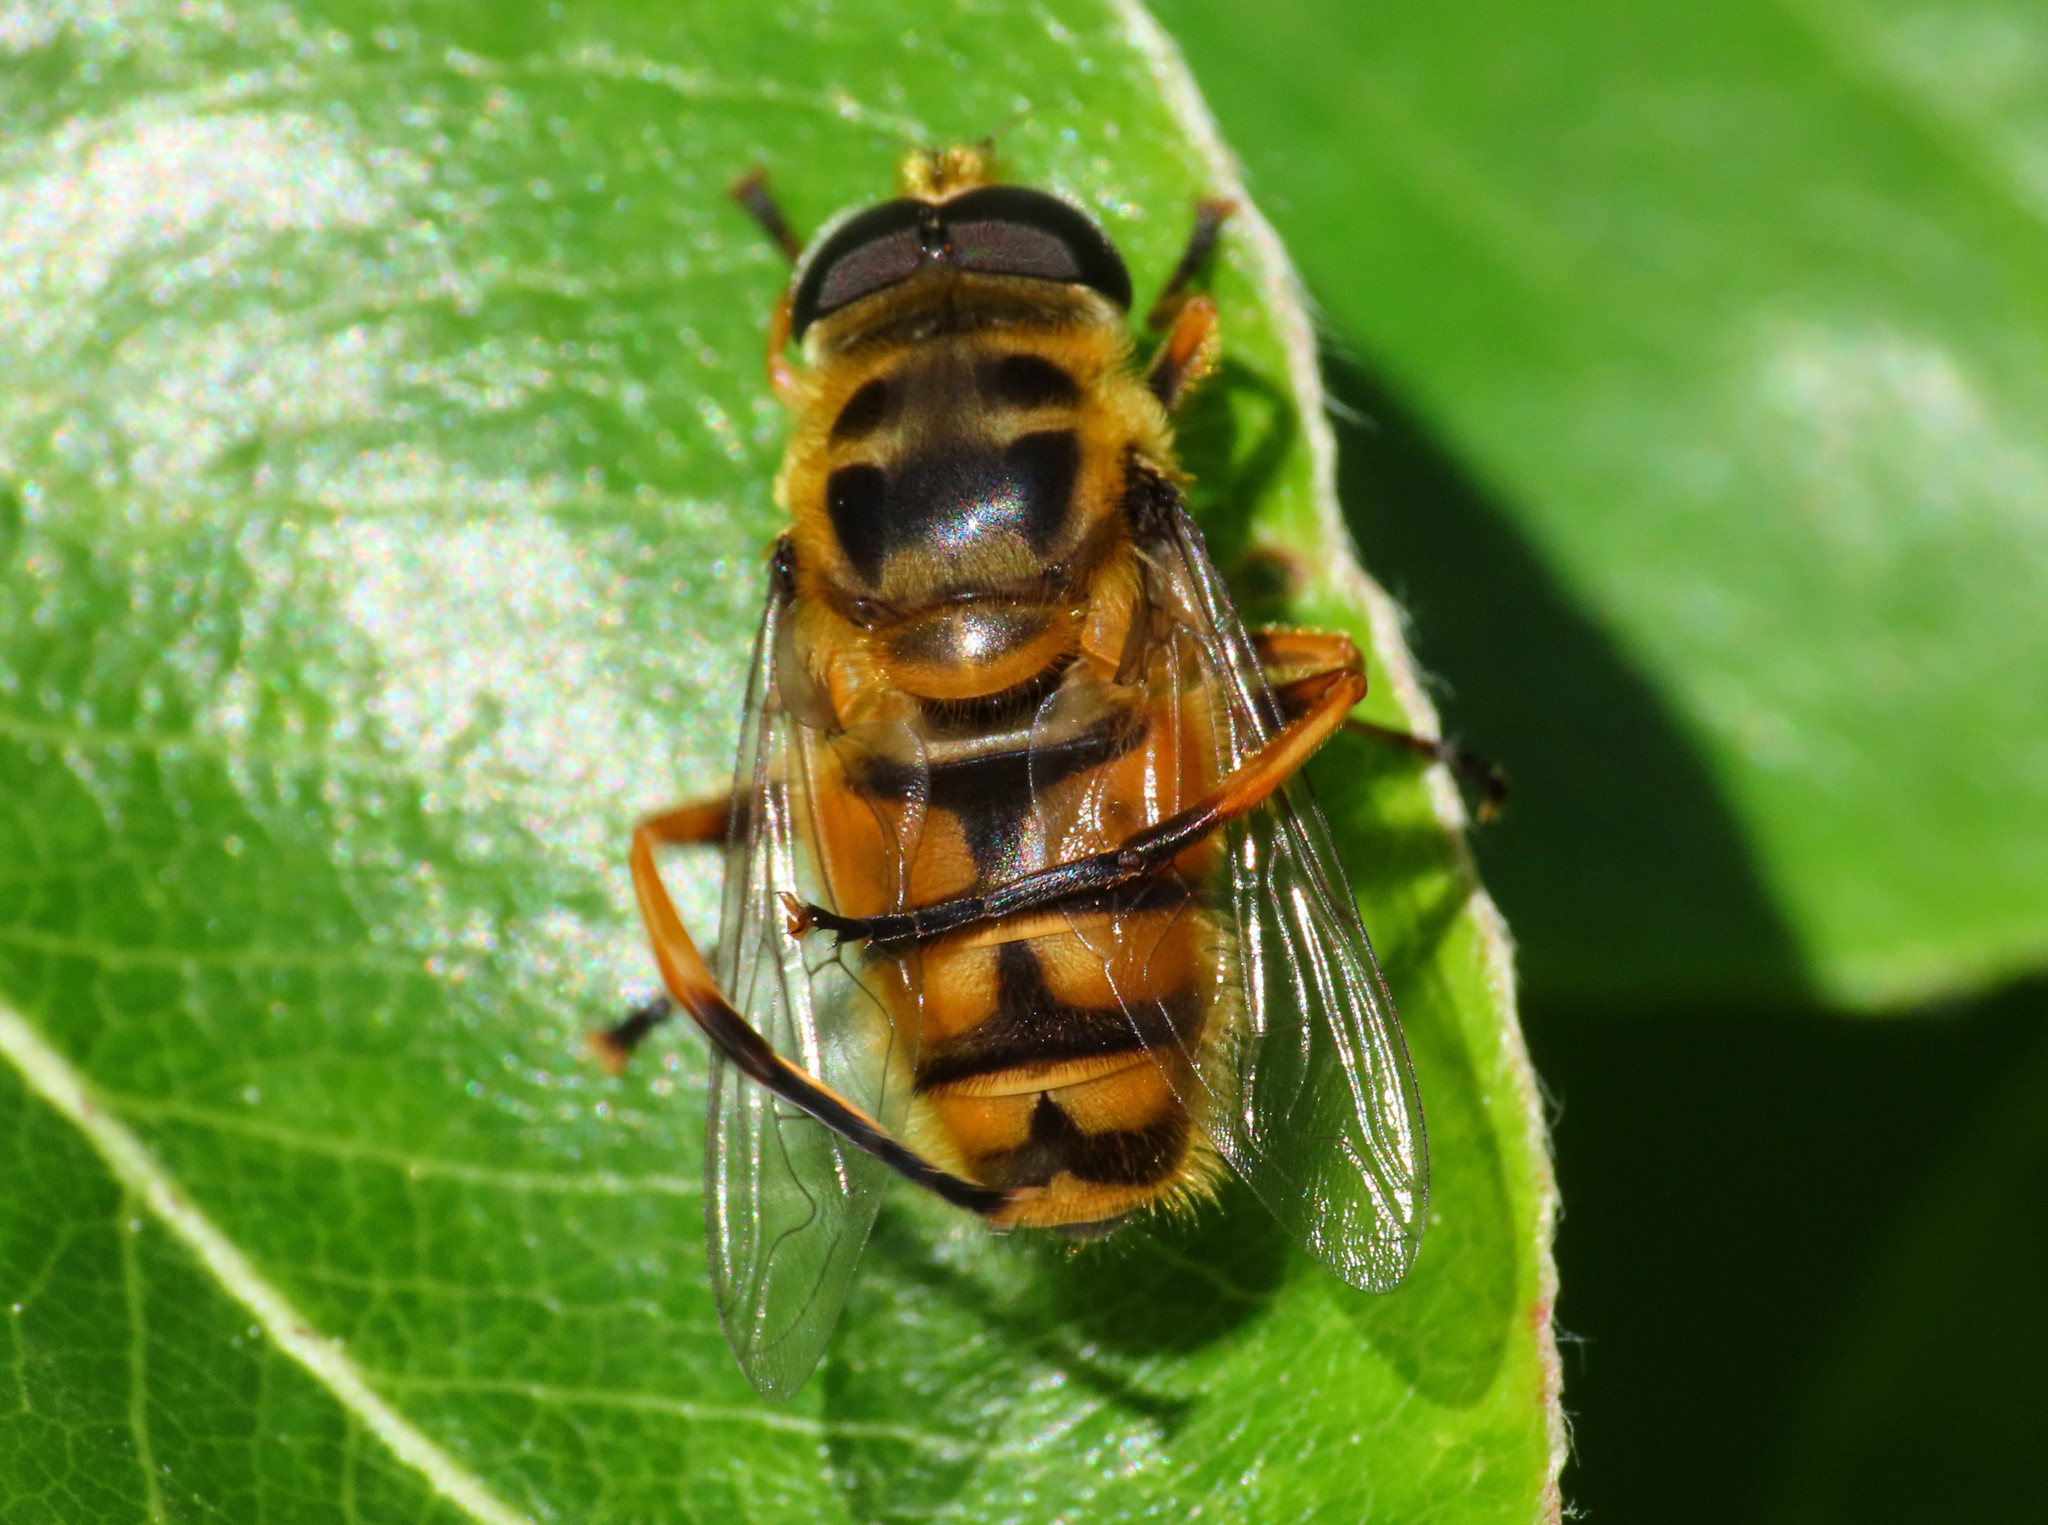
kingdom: Animalia
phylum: Arthropoda
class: Insecta
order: Diptera
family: Syrphidae
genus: Myathropa
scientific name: Myathropa florea
